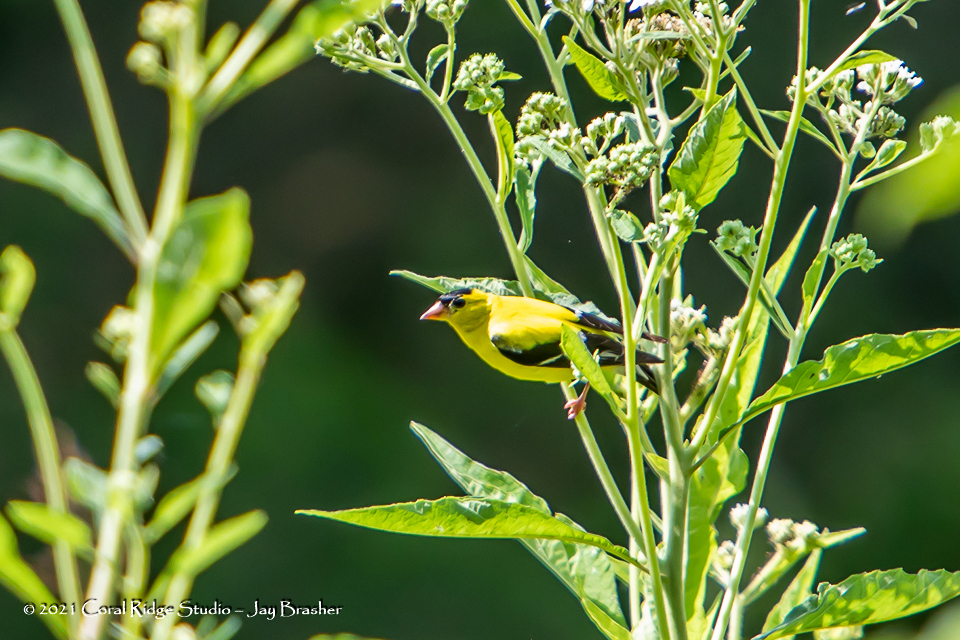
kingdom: Animalia
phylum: Chordata
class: Aves
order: Passeriformes
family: Fringillidae
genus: Spinus
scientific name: Spinus tristis
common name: American goldfinch
